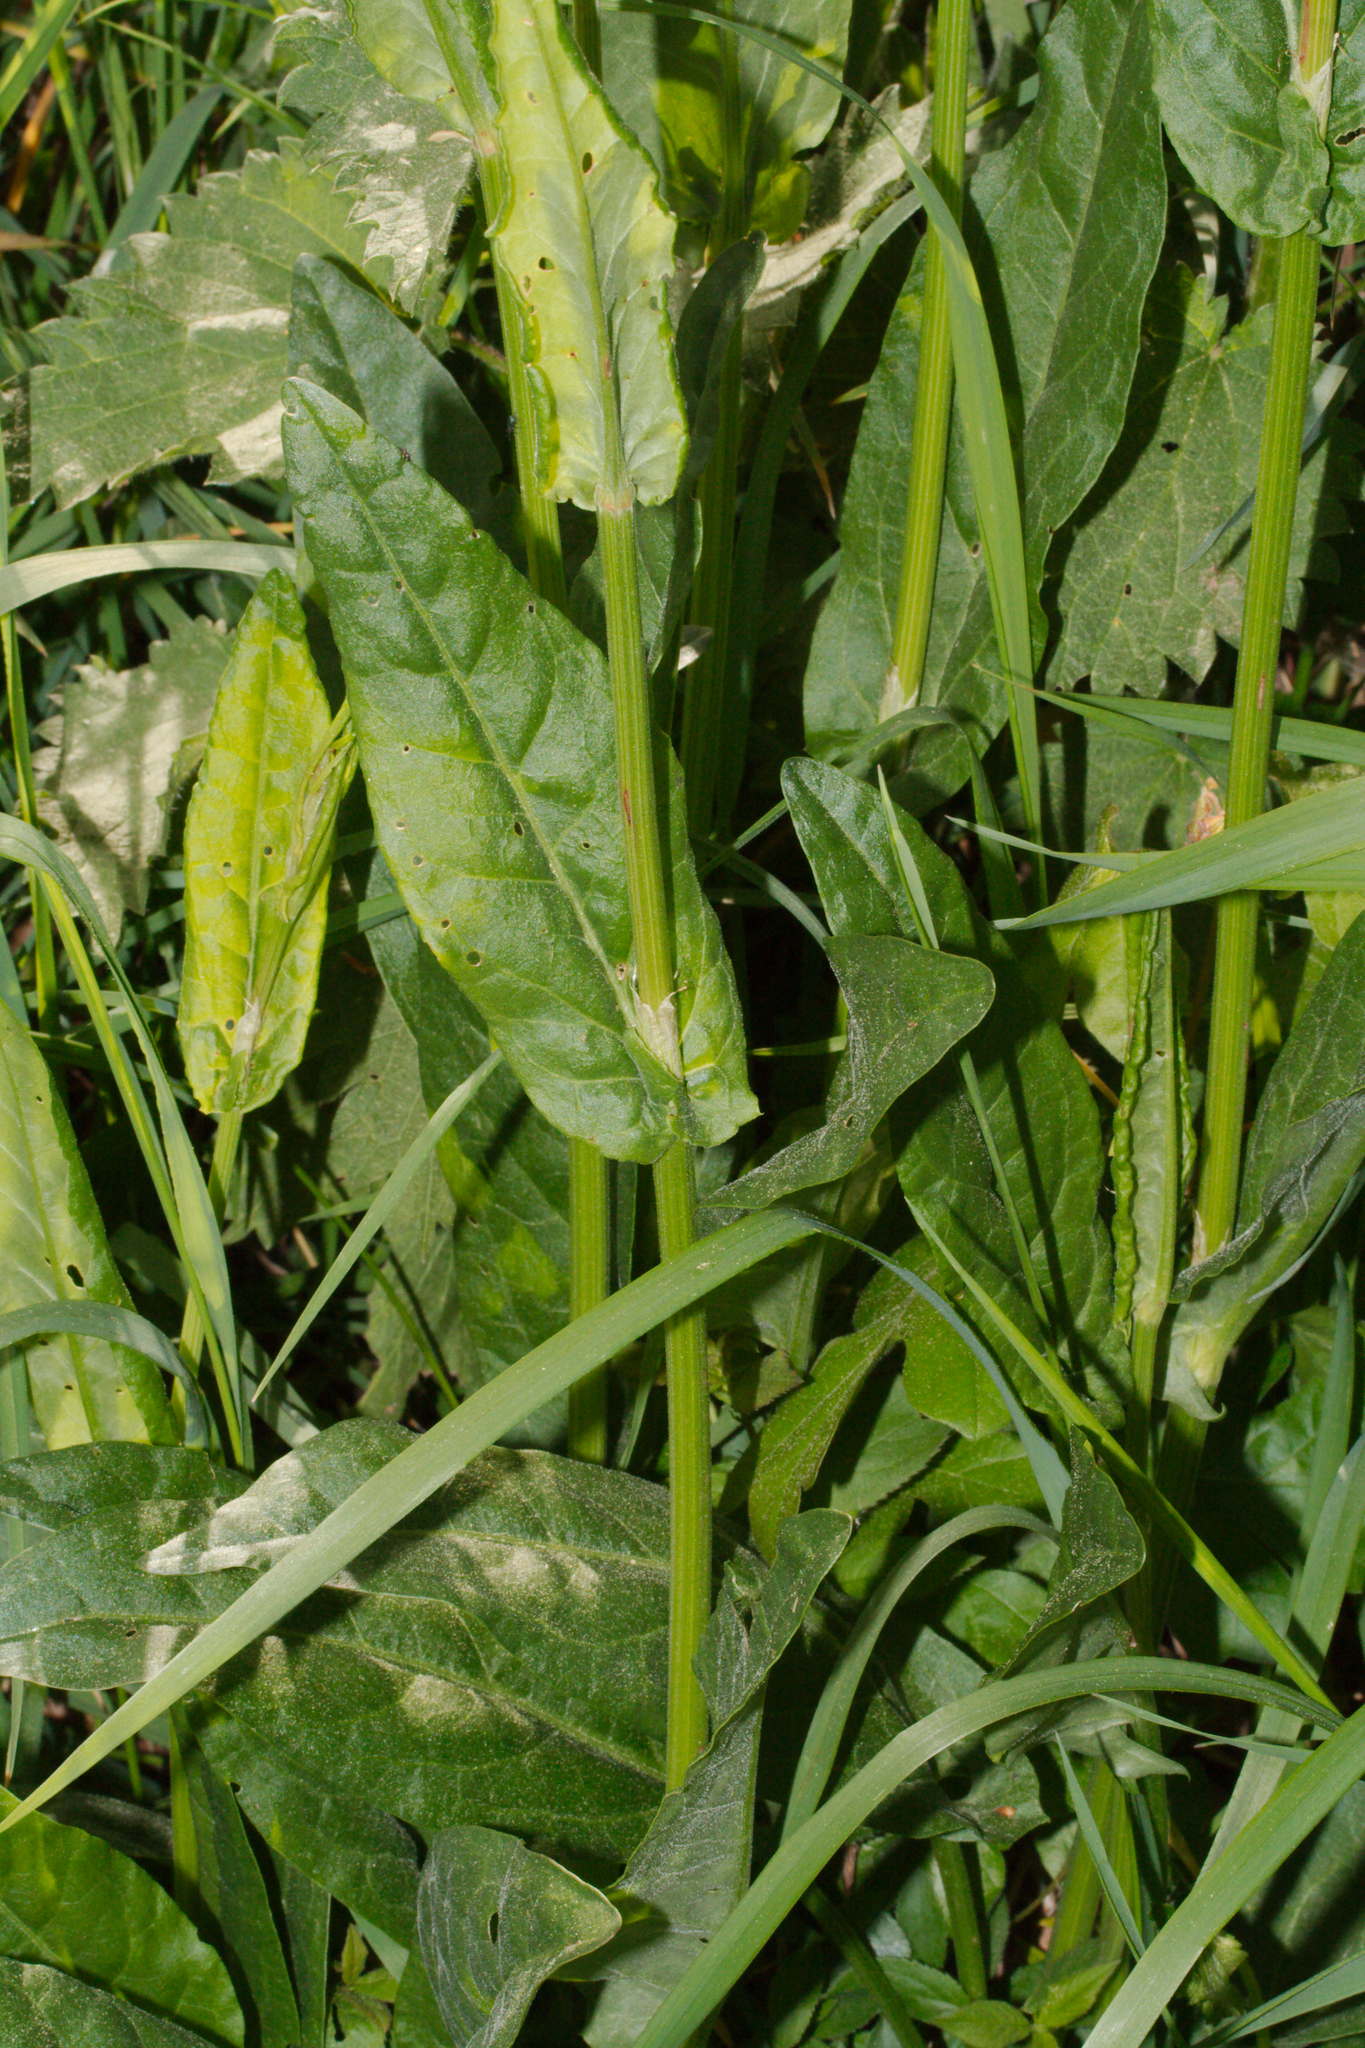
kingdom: Plantae
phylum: Tracheophyta
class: Magnoliopsida
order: Caryophyllales
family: Polygonaceae
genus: Rumex
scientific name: Rumex acetosa
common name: Garden sorrel
